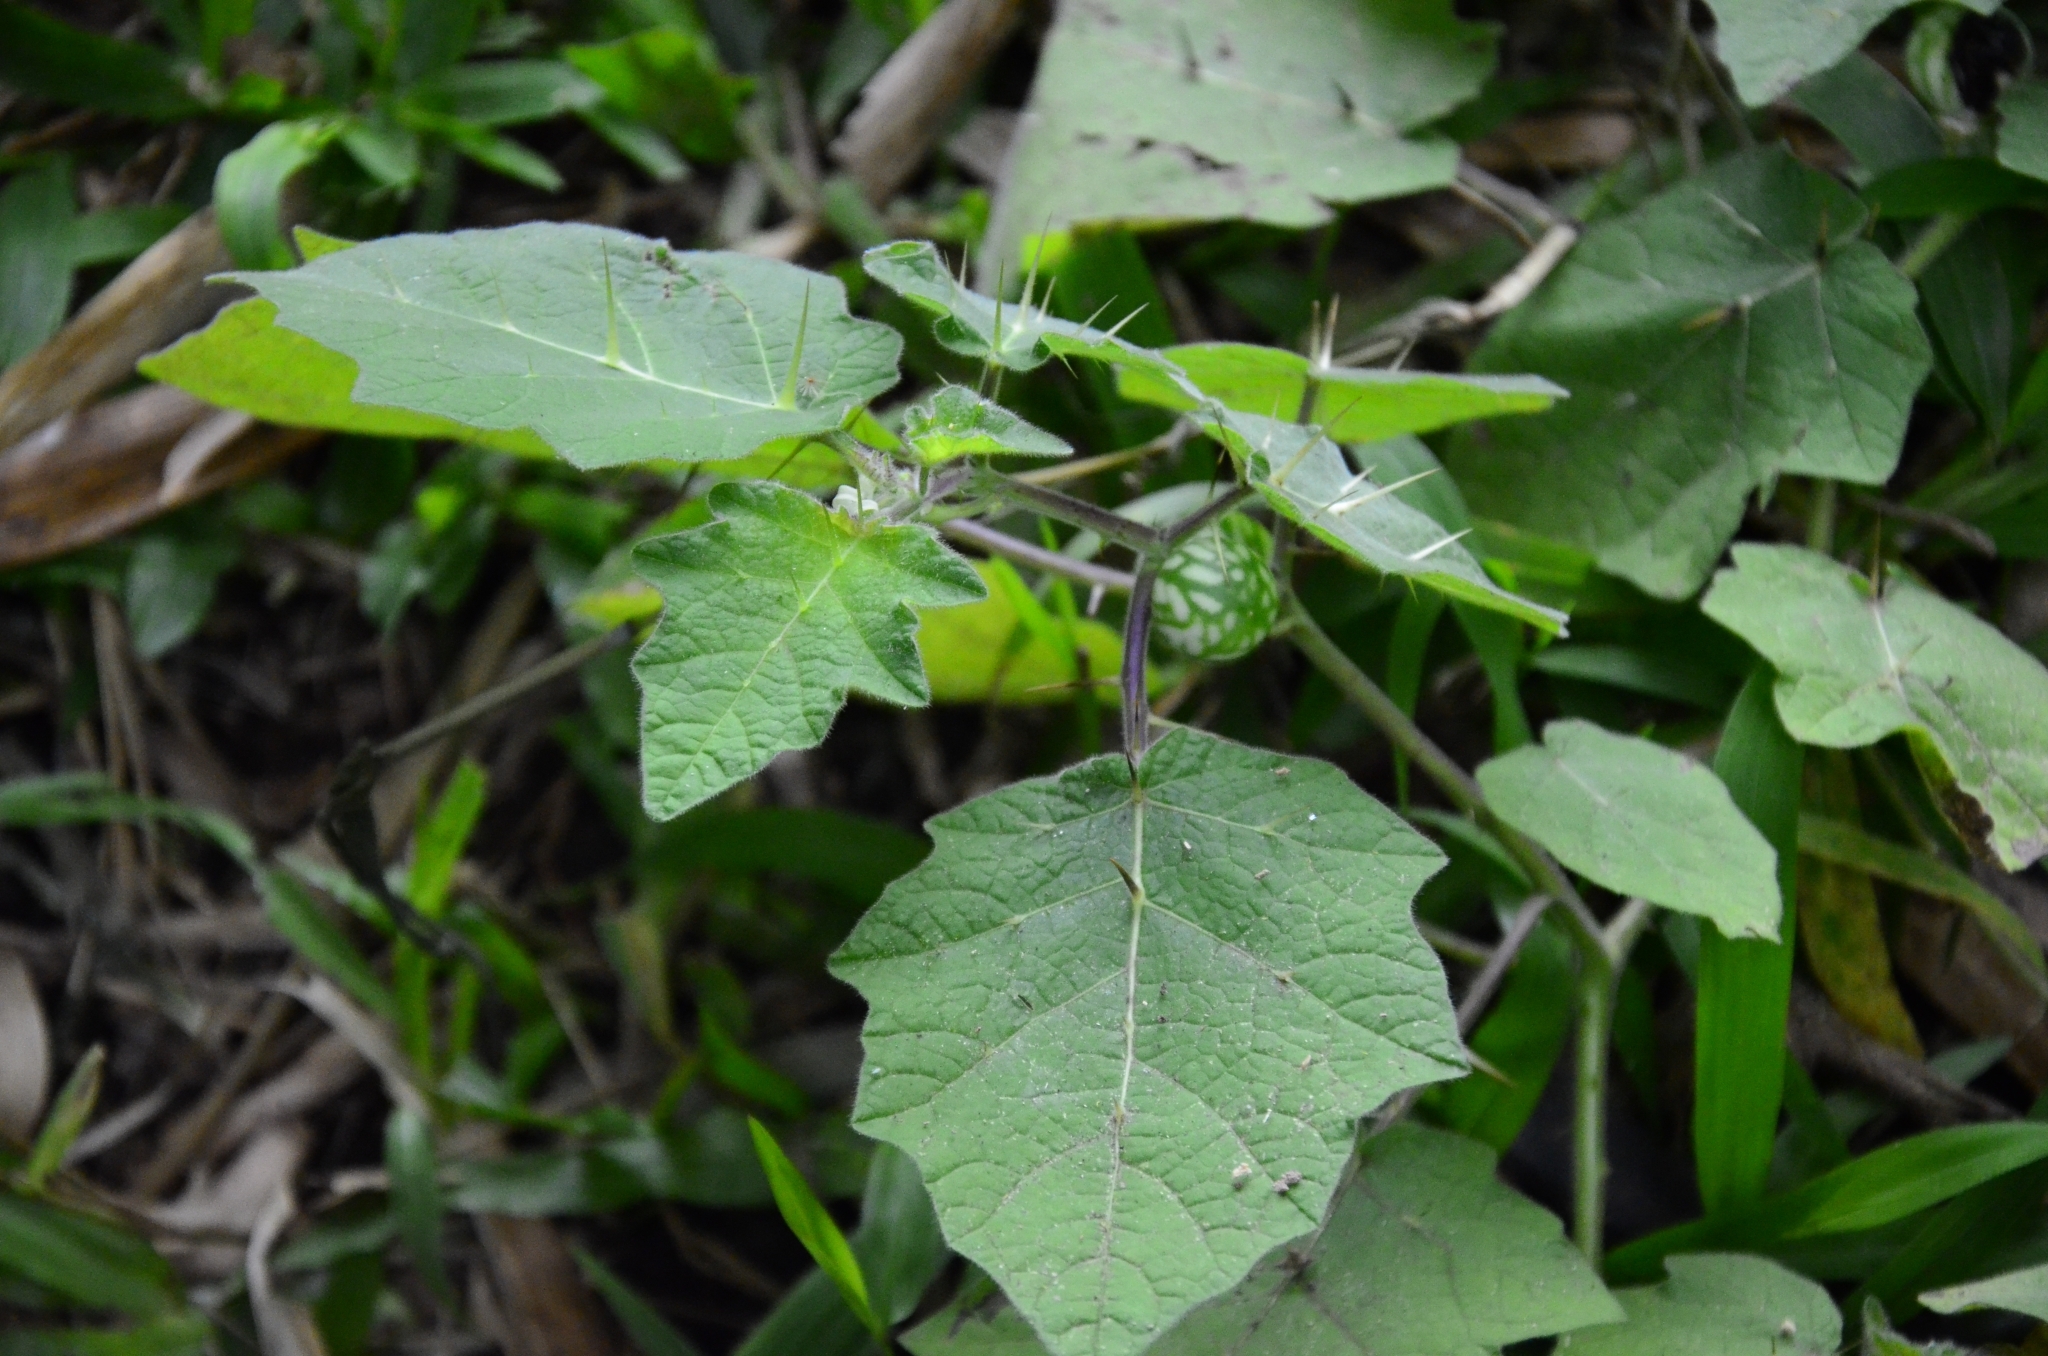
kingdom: Plantae
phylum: Tracheophyta
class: Magnoliopsida
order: Solanales
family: Solanaceae
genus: Solanum
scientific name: Solanum viarum
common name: Tropical soda apple
